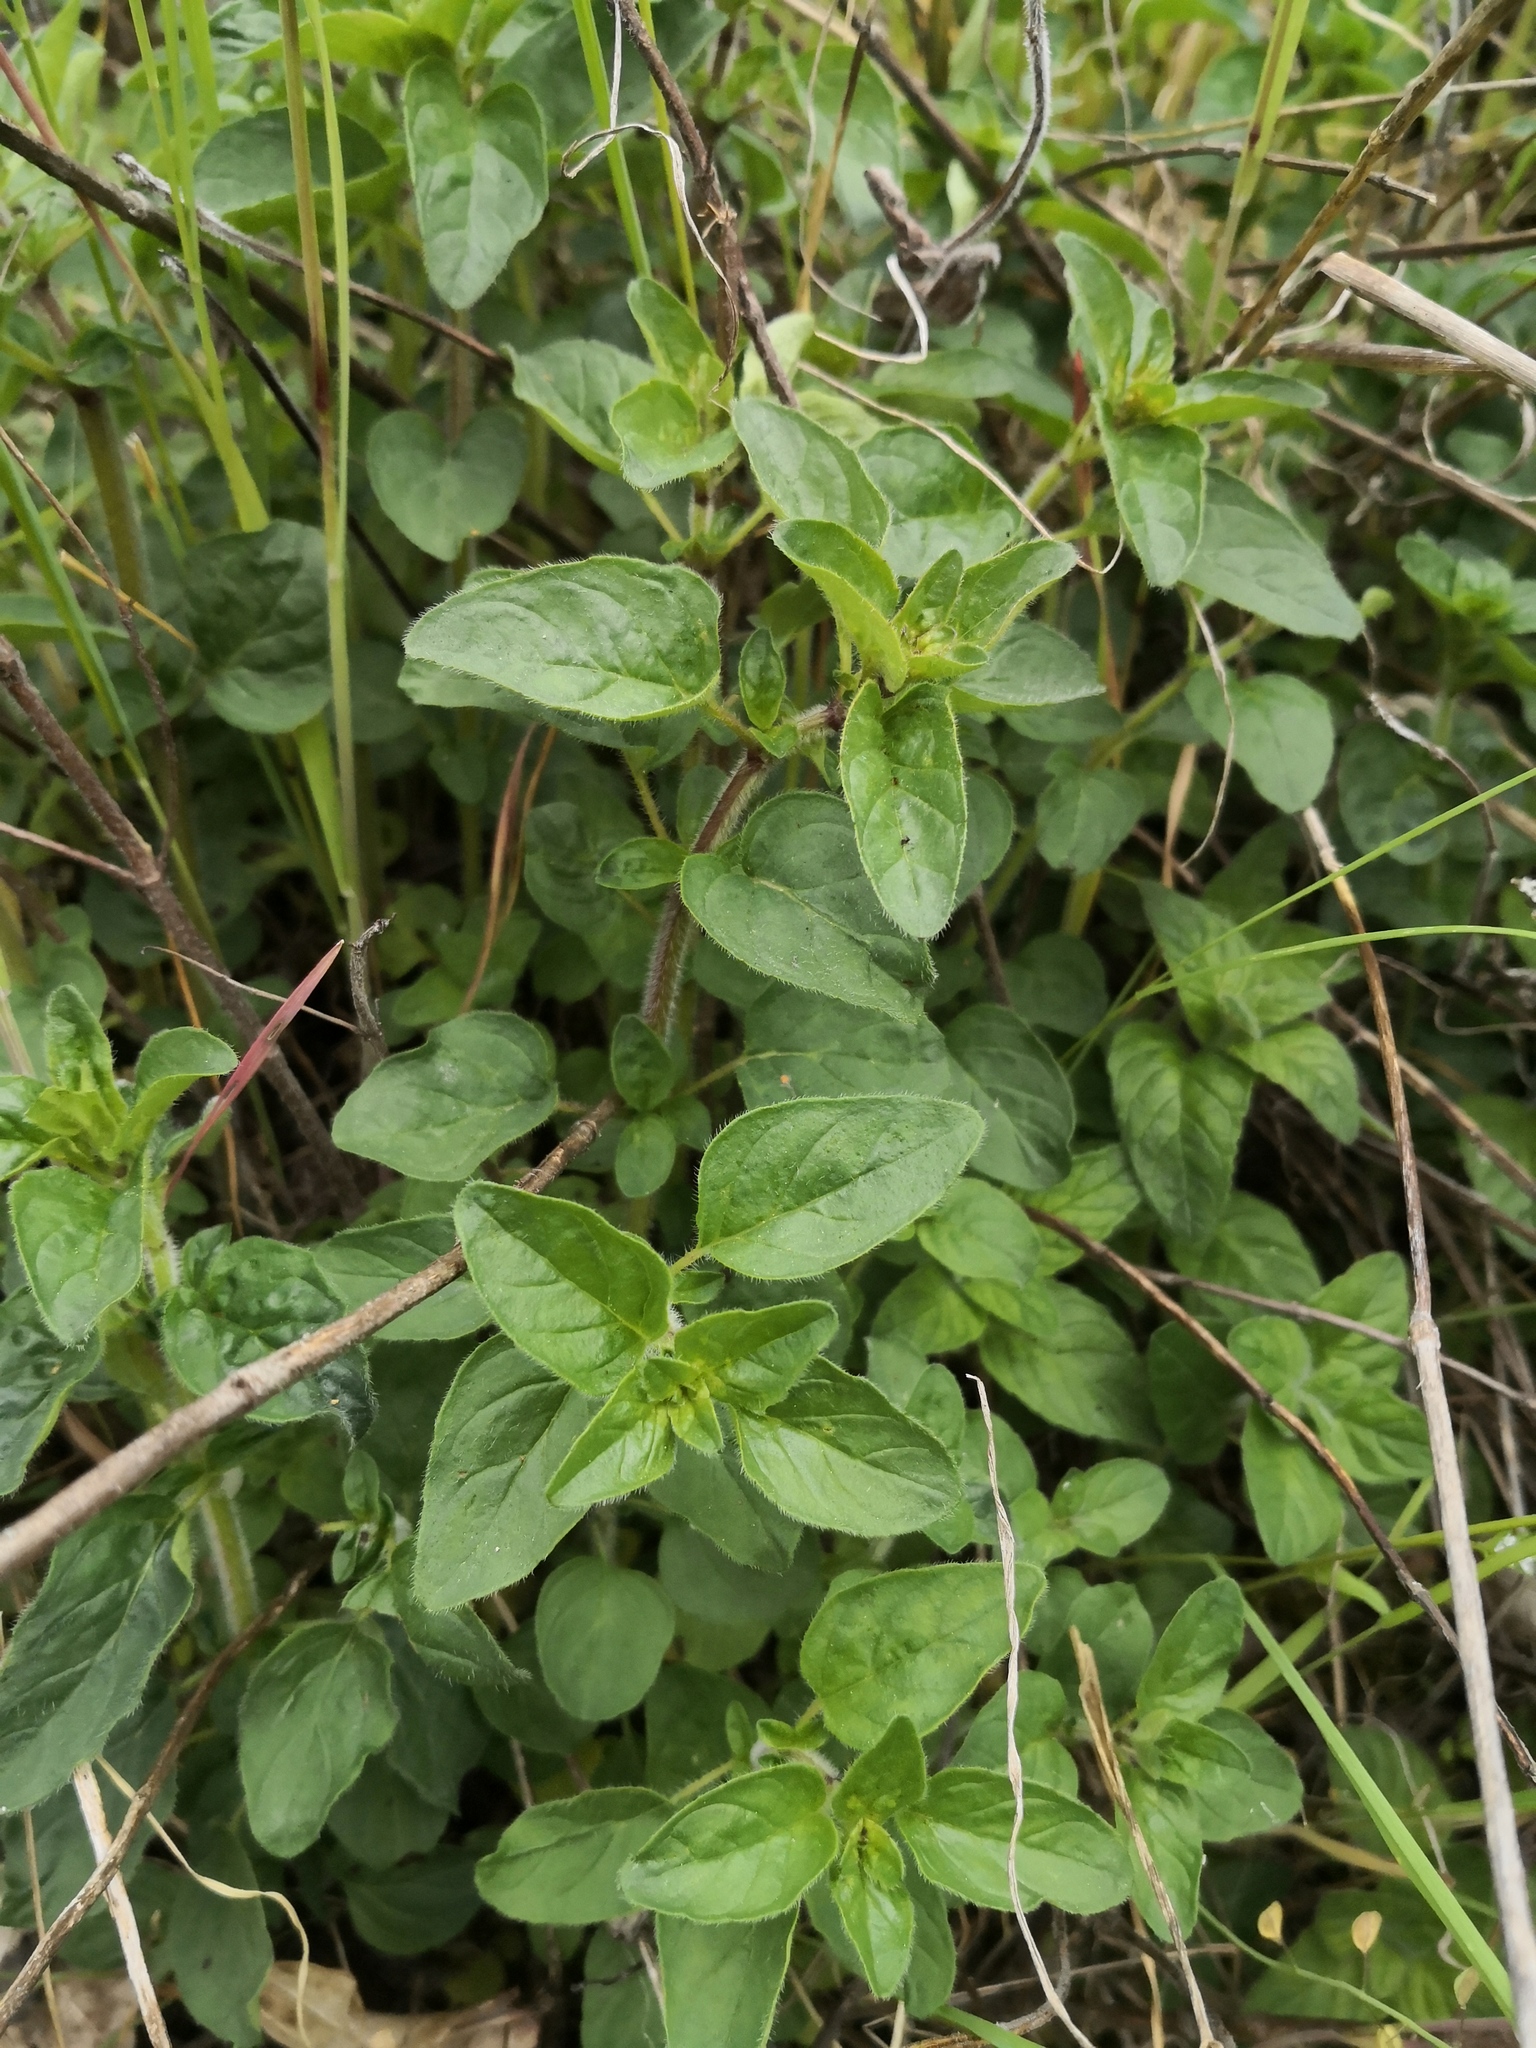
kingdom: Plantae
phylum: Tracheophyta
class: Magnoliopsida
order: Lamiales
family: Lamiaceae
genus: Origanum
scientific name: Origanum vulgare
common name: Wild marjoram
